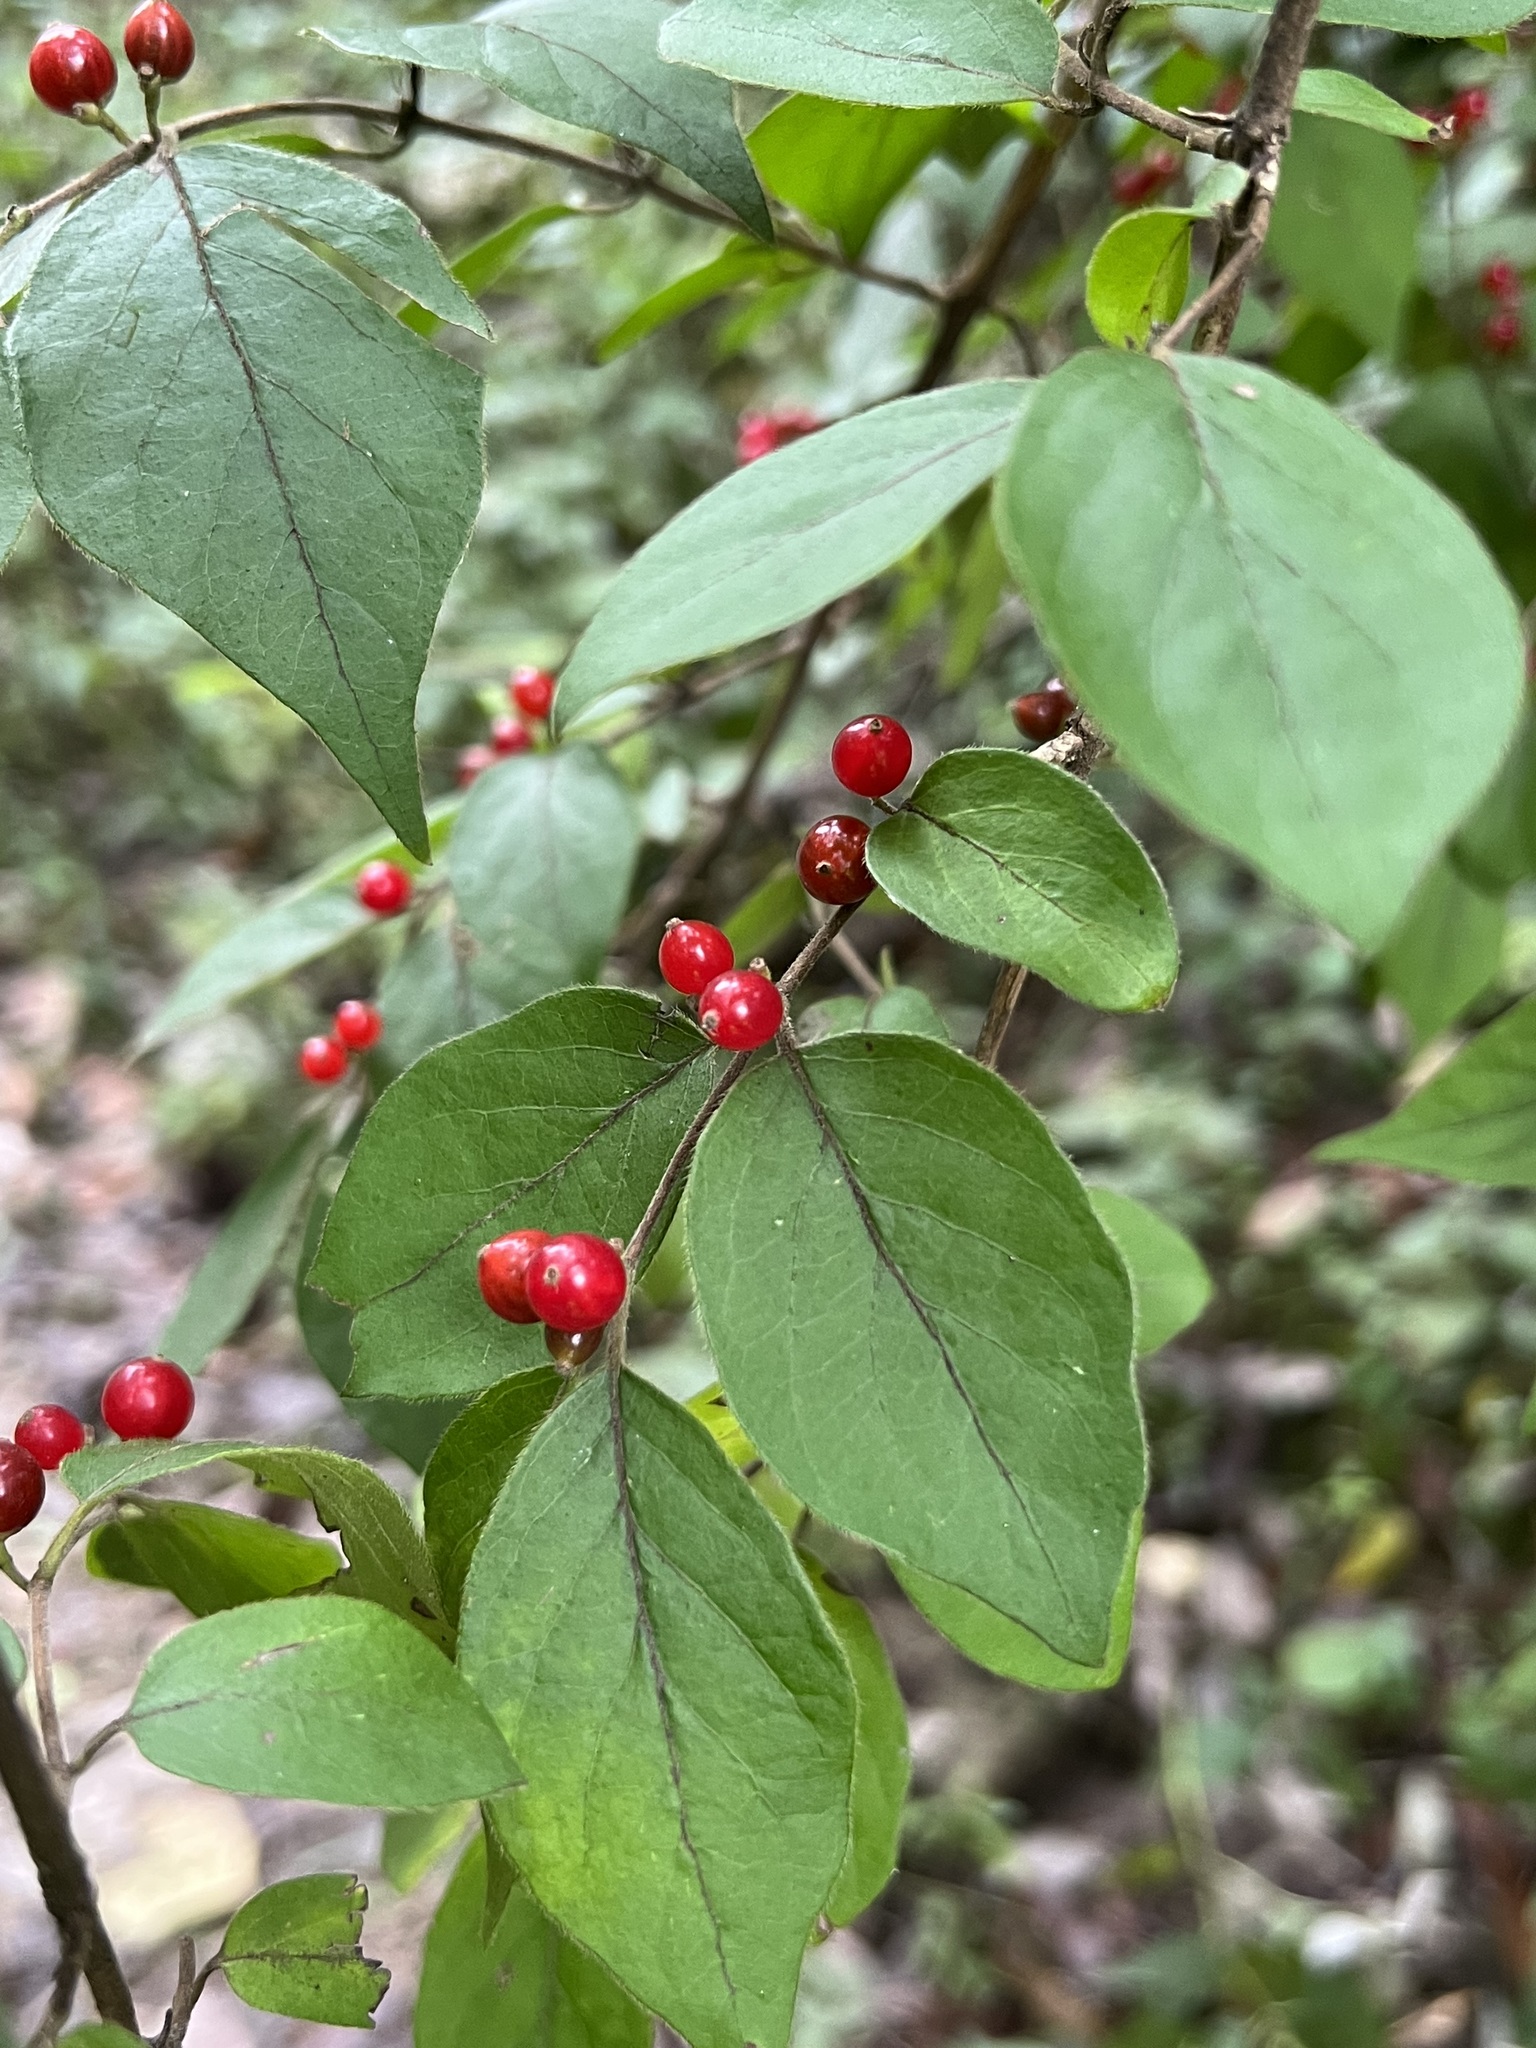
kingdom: Plantae
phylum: Tracheophyta
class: Magnoliopsida
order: Dipsacales
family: Caprifoliaceae
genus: Lonicera
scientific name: Lonicera maackii
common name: Amur honeysuckle
